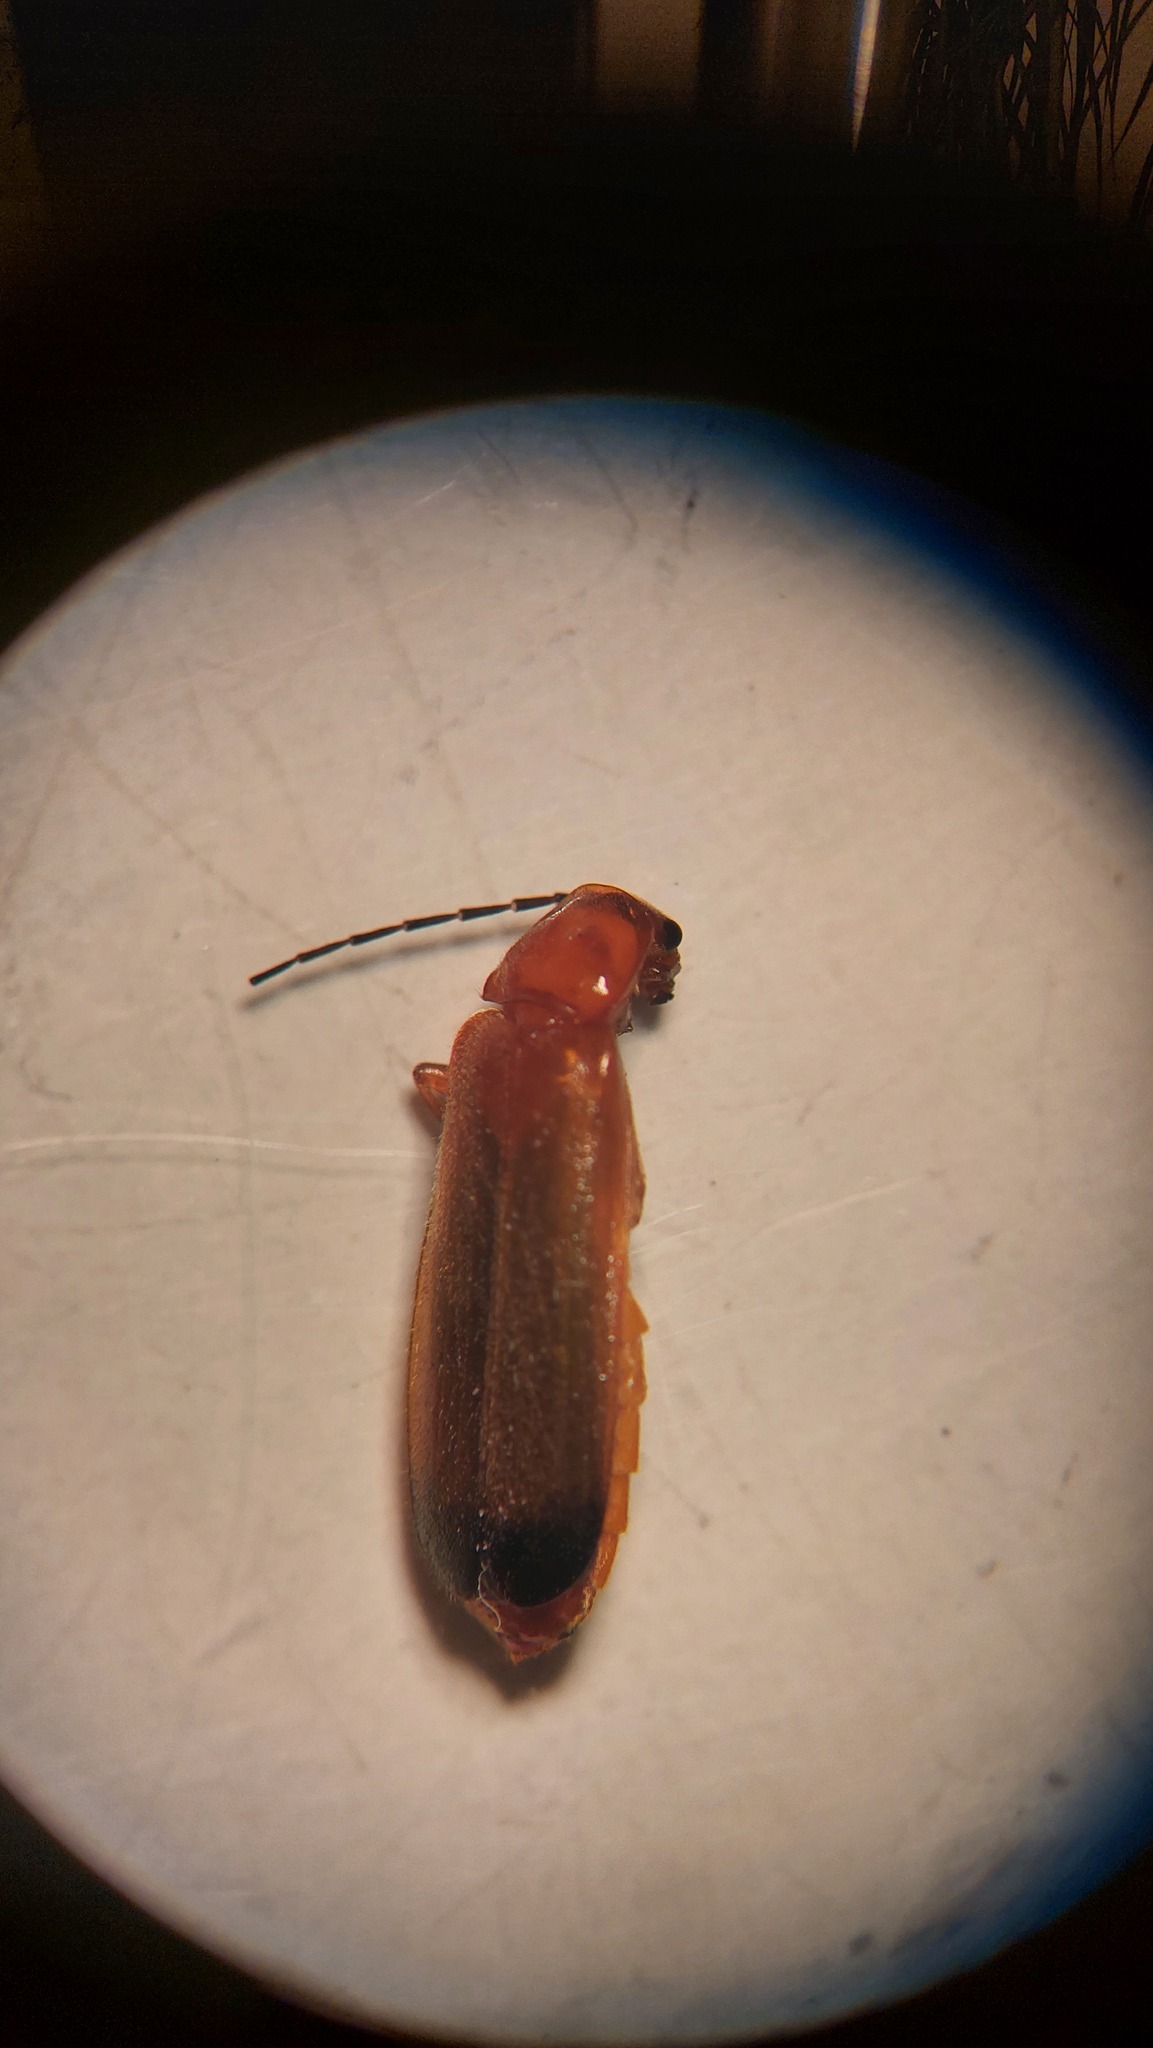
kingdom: Animalia
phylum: Arthropoda
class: Insecta
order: Coleoptera
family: Cantharidae
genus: Rhagonycha
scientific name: Rhagonycha fulva
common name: Common red soldier beetle
